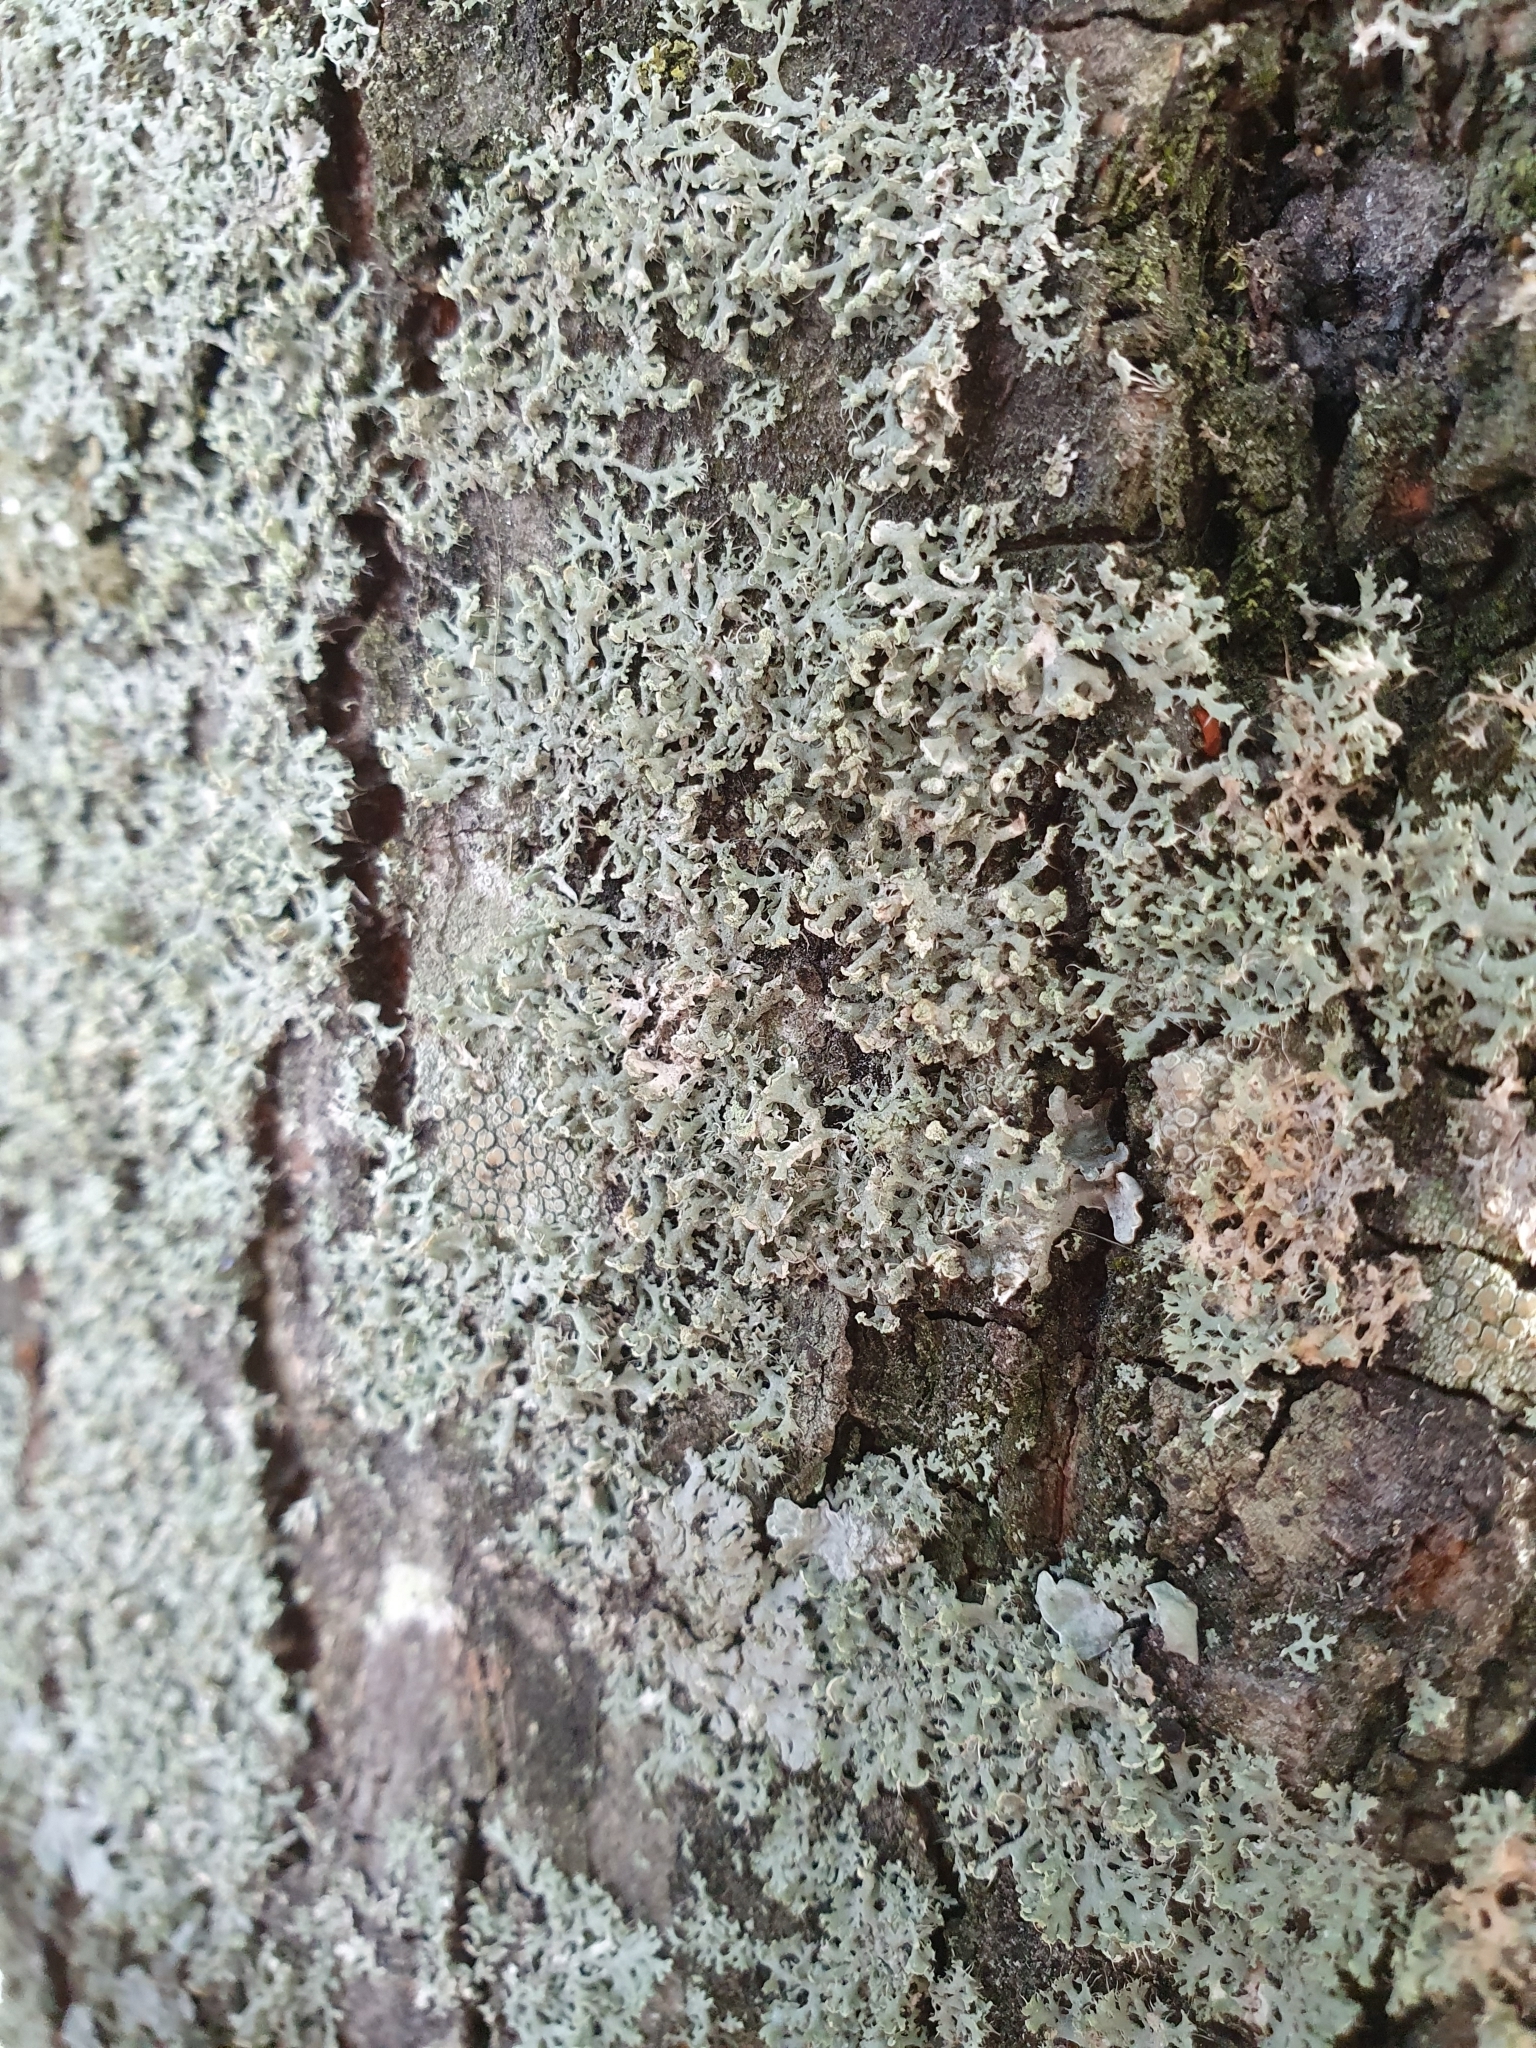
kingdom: Fungi
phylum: Ascomycota
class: Lecanoromycetes
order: Caliciales
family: Physciaceae
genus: Physcia
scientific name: Physcia tenella
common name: Fringed rosette lichen
